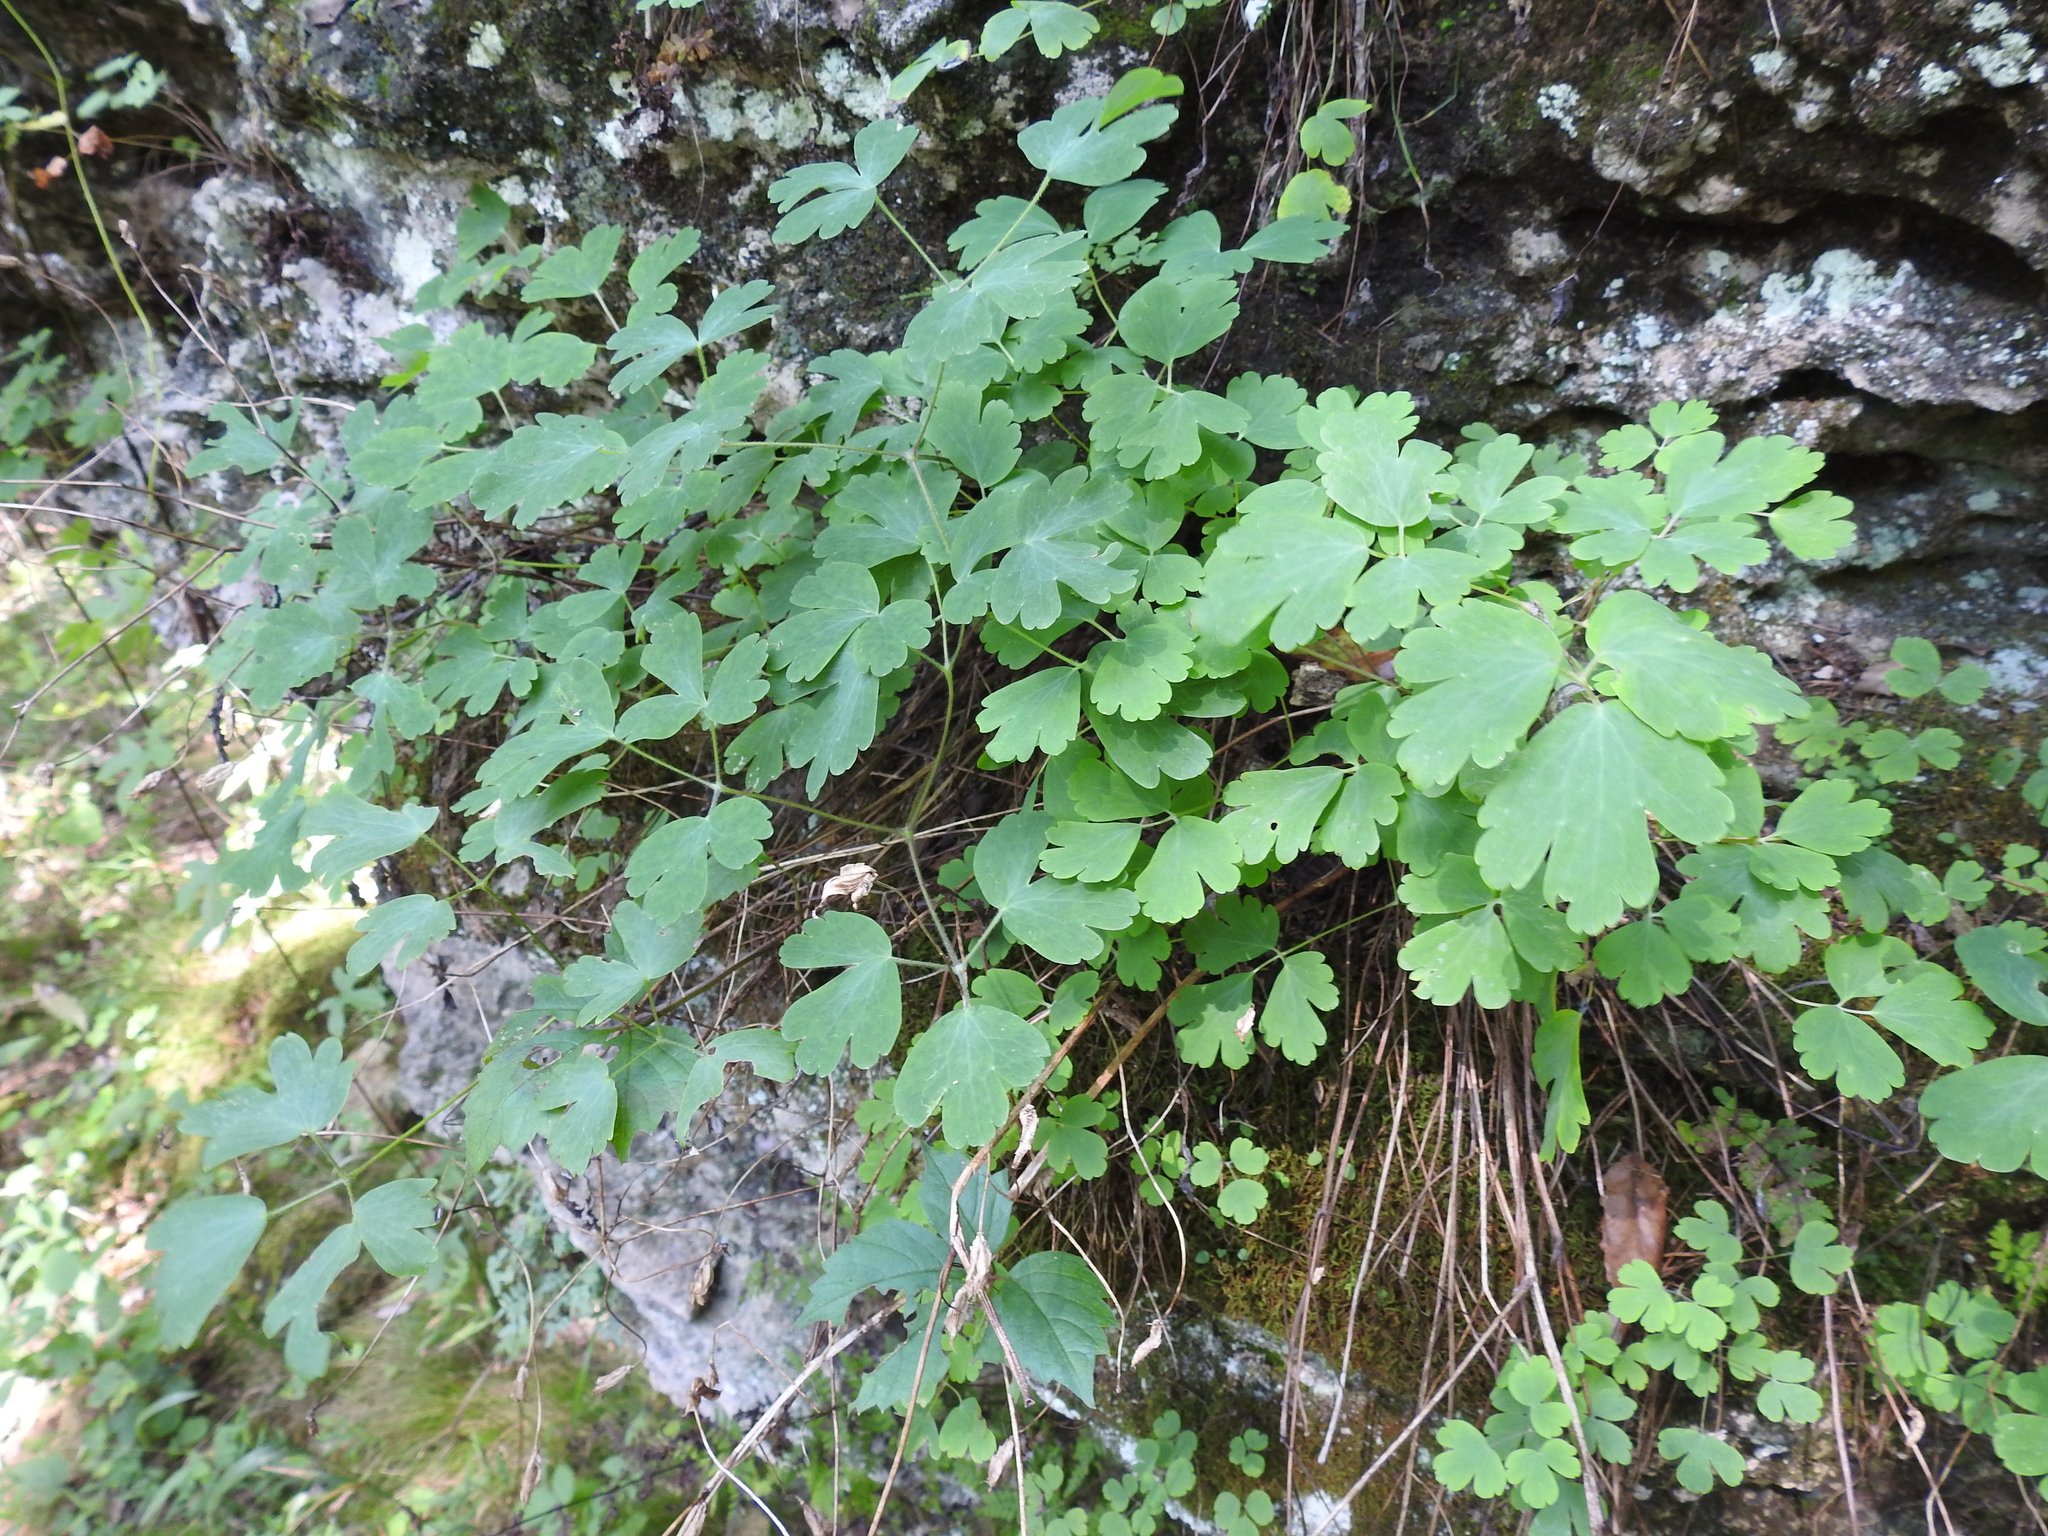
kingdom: Plantae
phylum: Tracheophyta
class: Magnoliopsida
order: Ranunculales
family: Ranunculaceae
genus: Aquilegia
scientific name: Aquilegia canadensis
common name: American columbine
